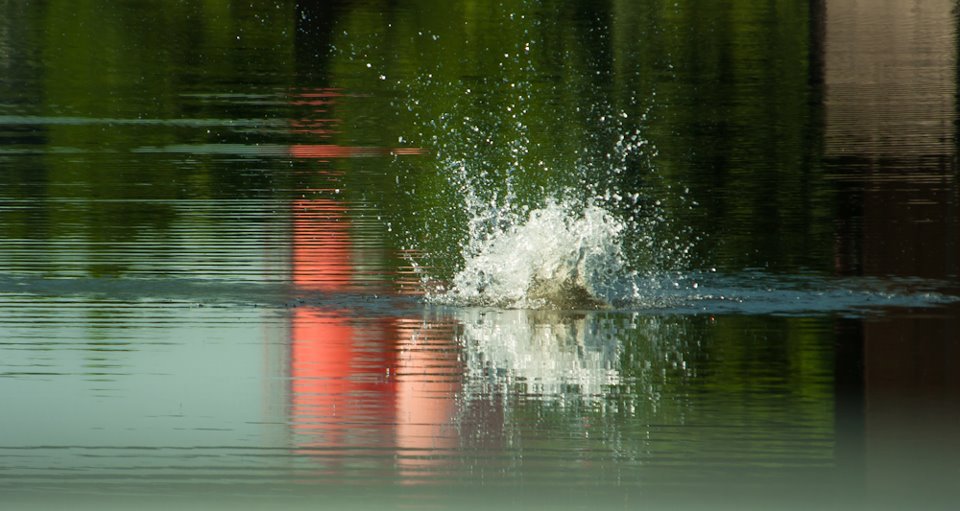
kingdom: Animalia
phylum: Chordata
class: Aves
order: Accipitriformes
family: Pandionidae
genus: Pandion
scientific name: Pandion haliaetus
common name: Osprey
